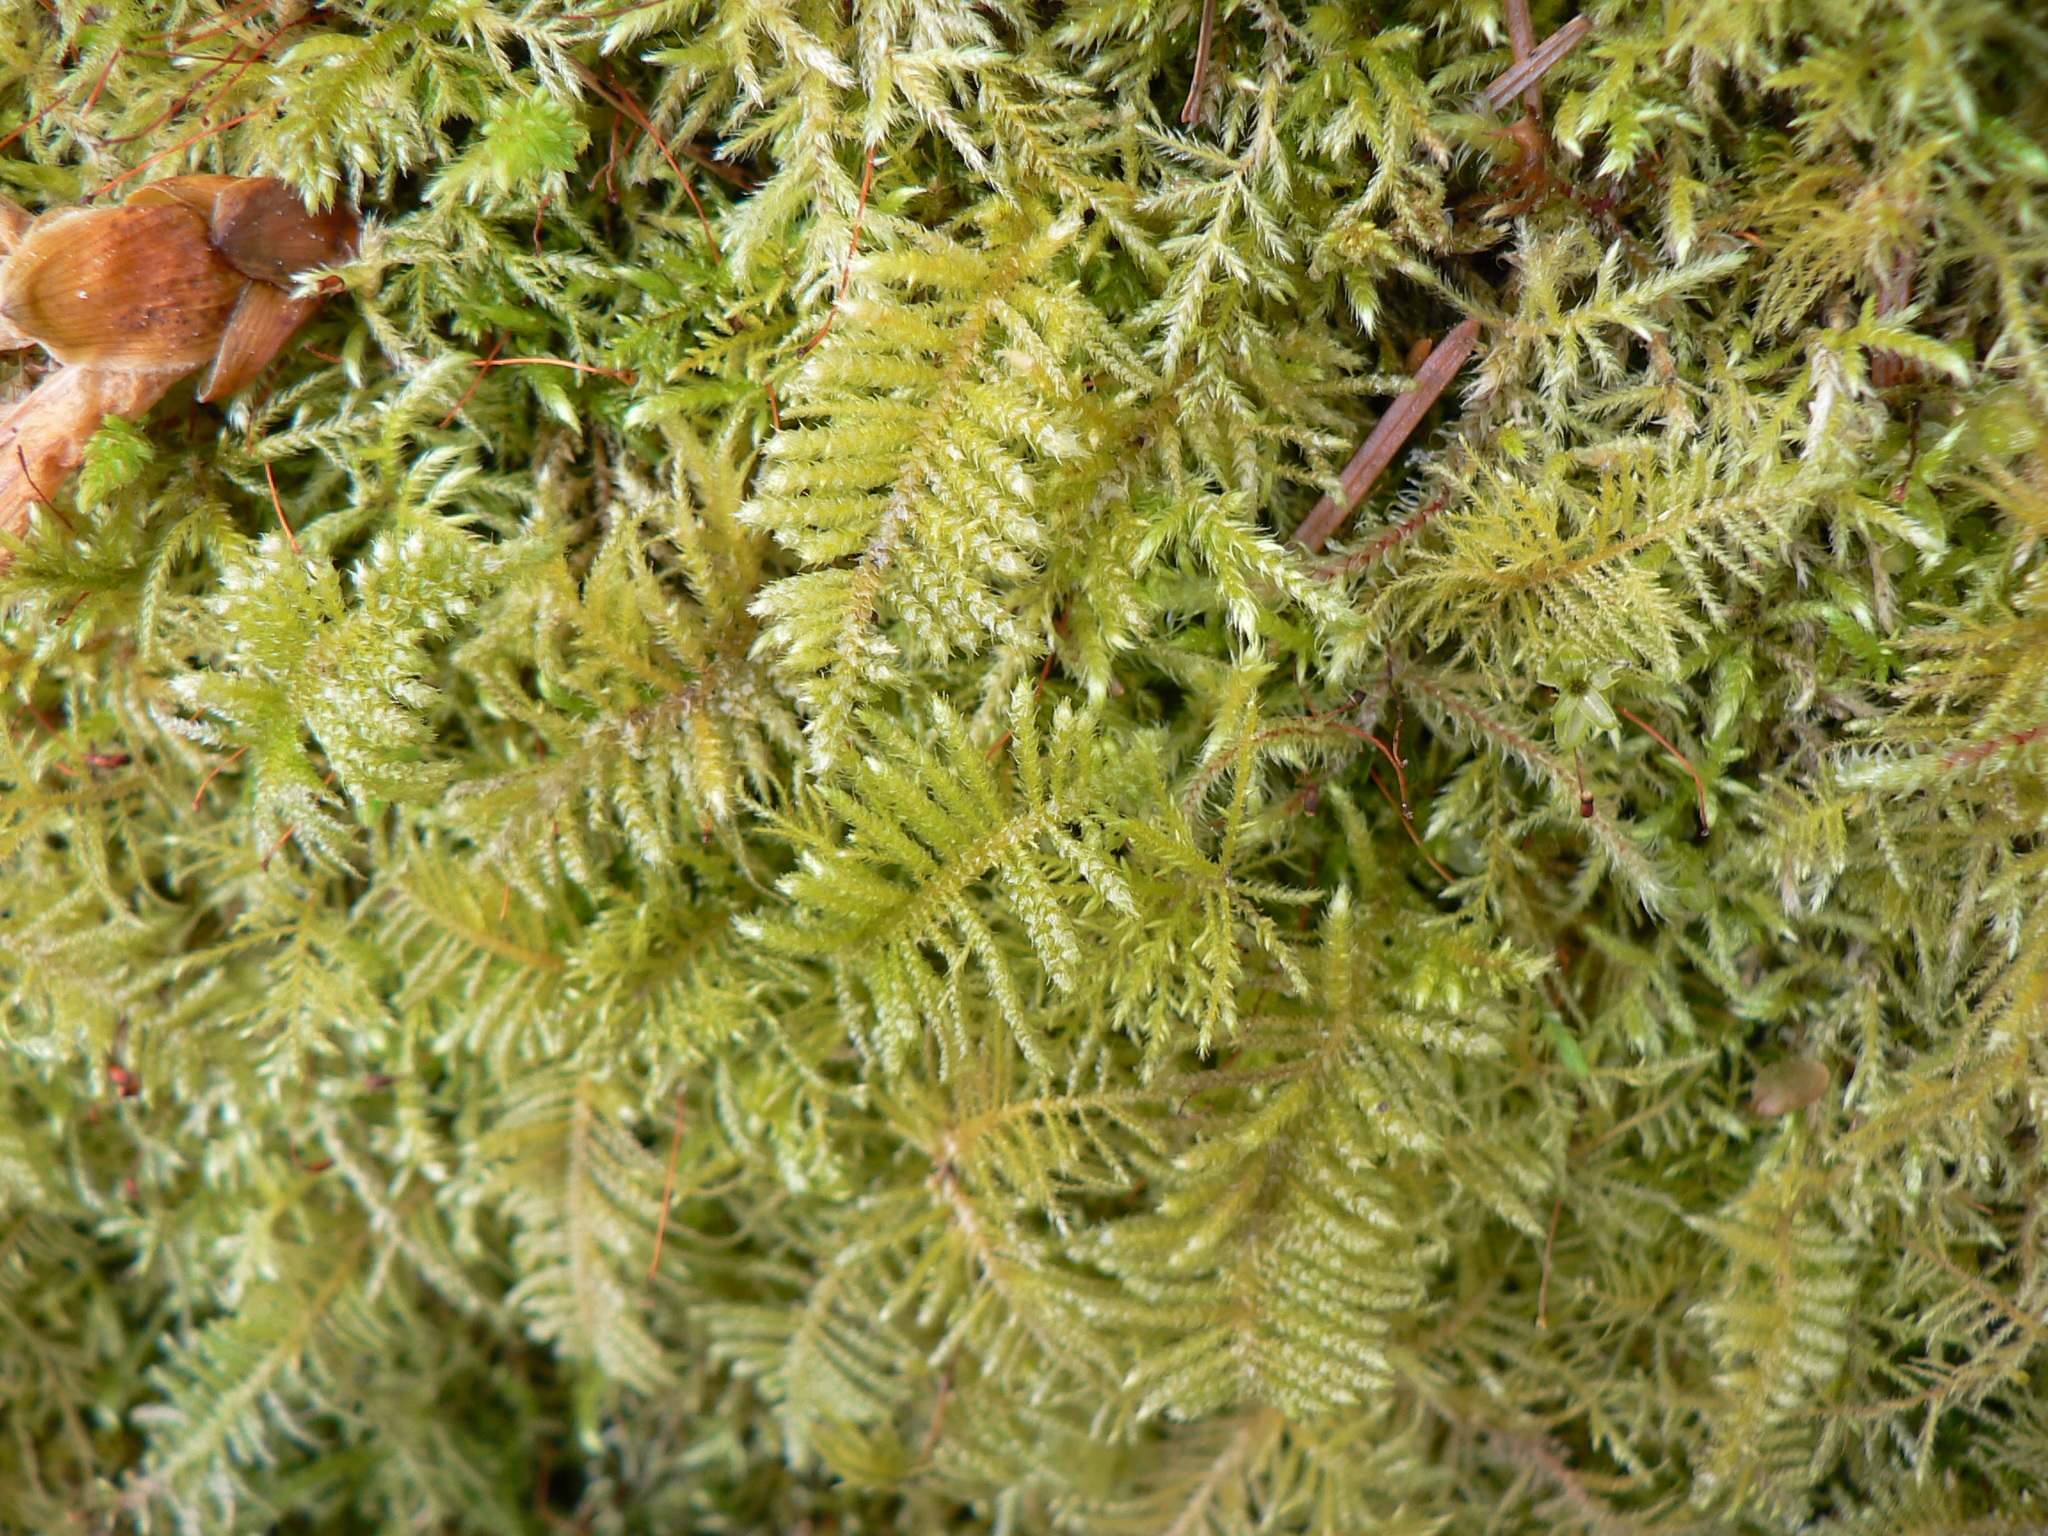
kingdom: Plantae
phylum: Bryophyta
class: Bryopsida
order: Hypnales
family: Brachytheciaceae
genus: Kindbergia
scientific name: Kindbergia oregana
